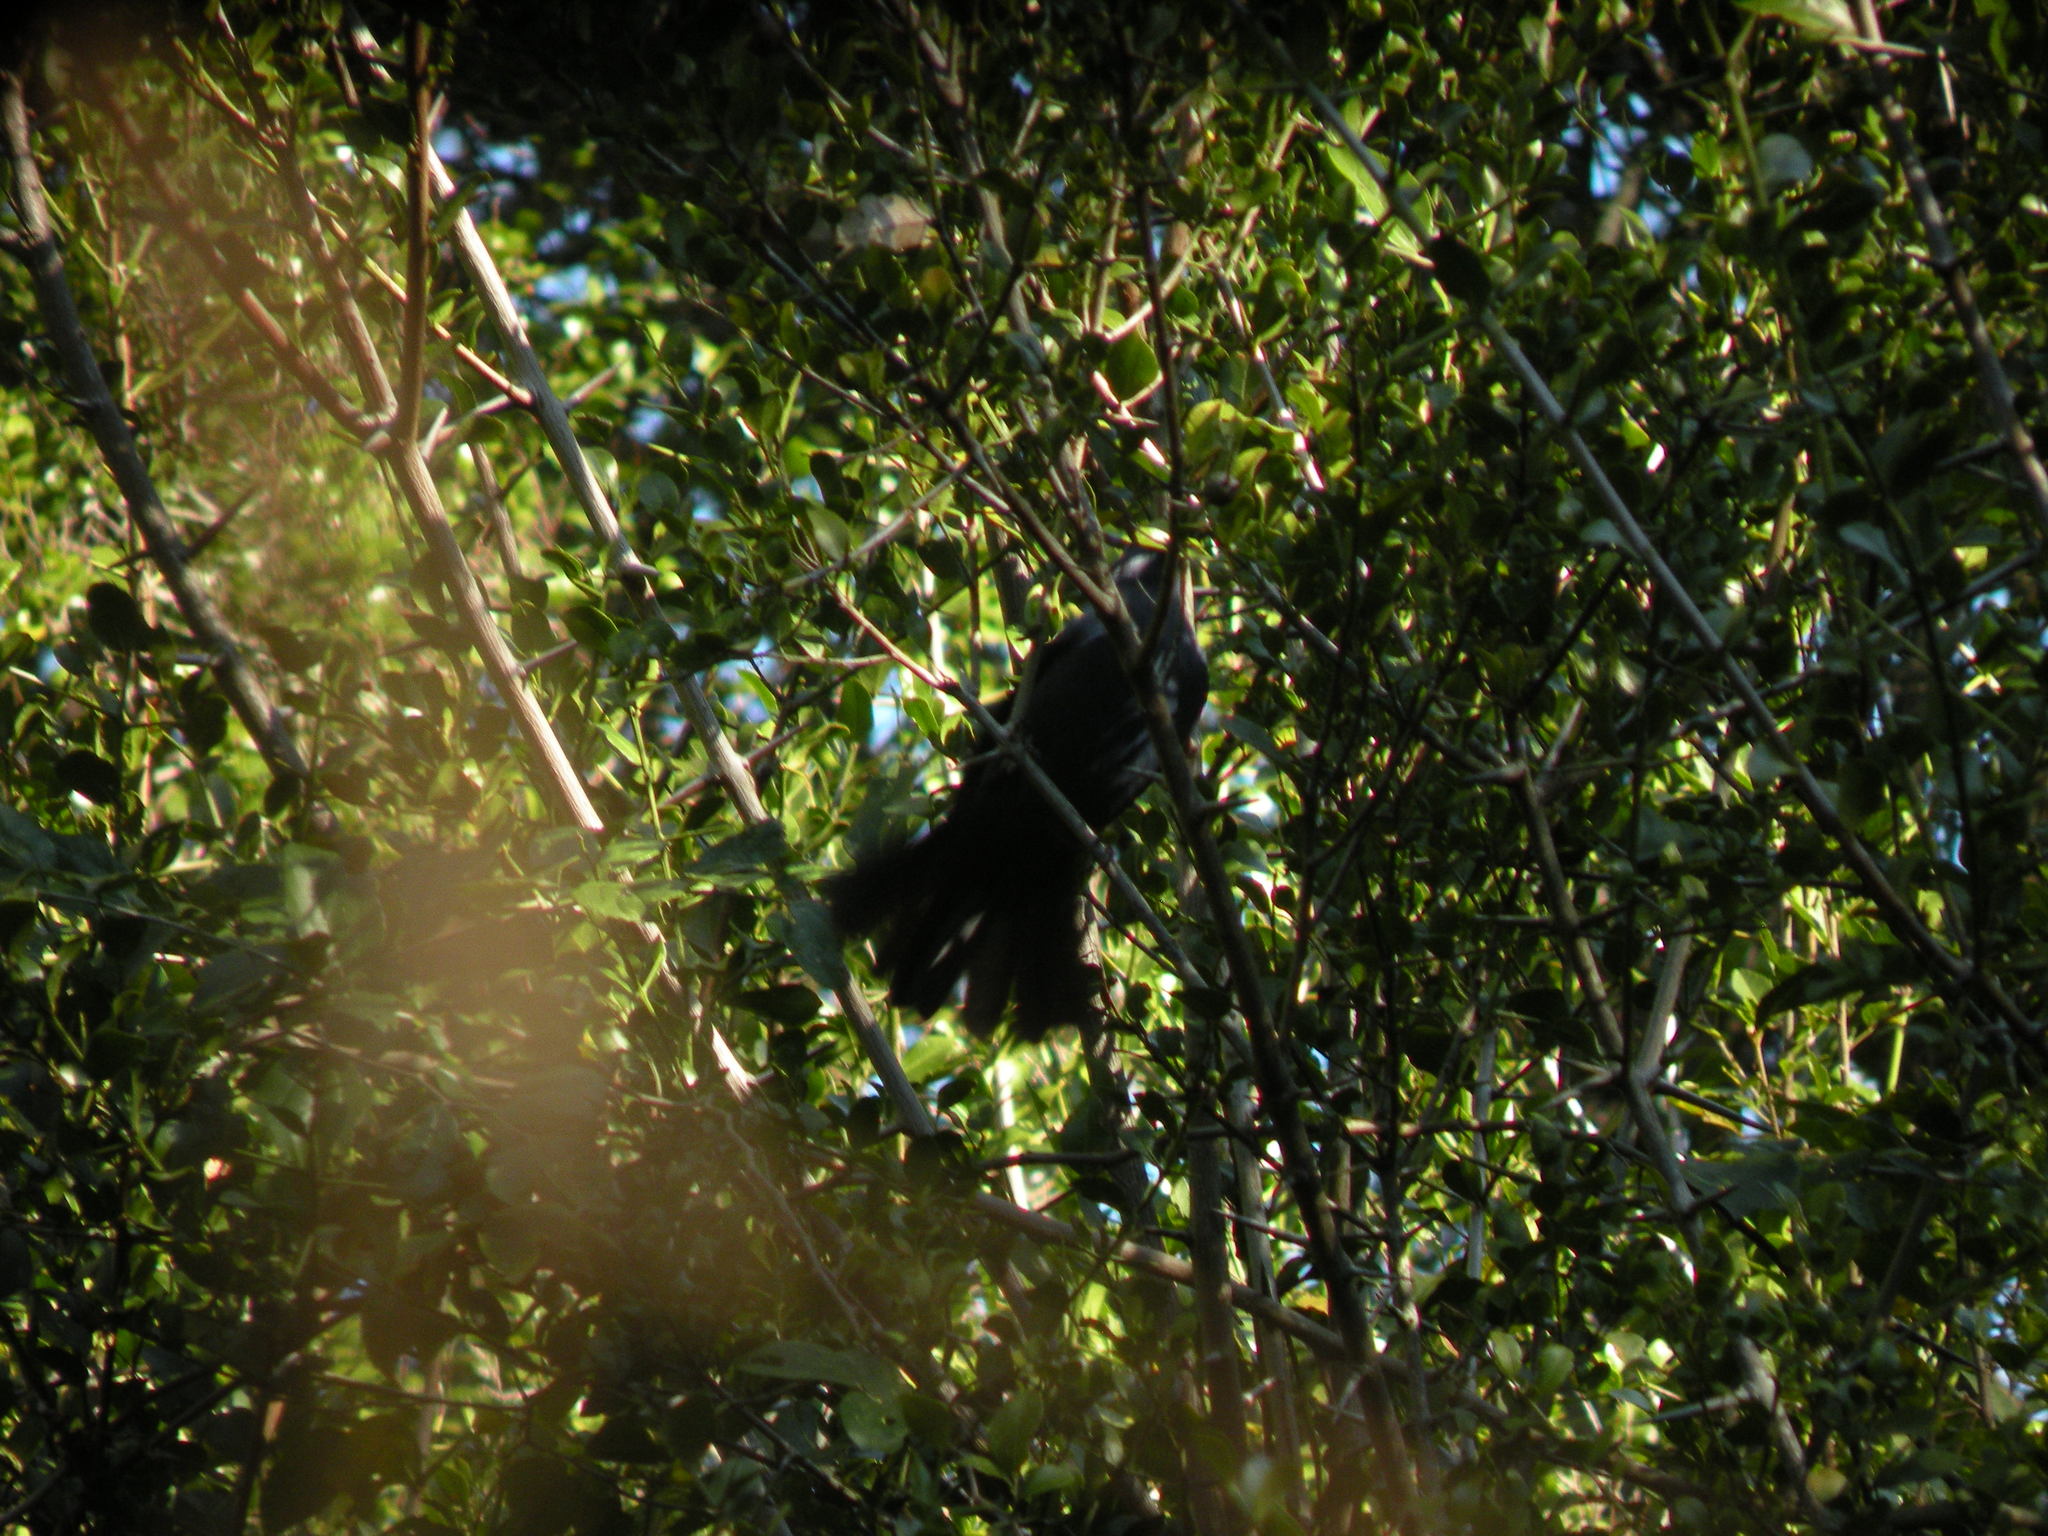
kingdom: Animalia
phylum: Chordata
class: Aves
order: Passeriformes
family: Thraupidae
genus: Stephanophorus
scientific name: Stephanophorus diadematus
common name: Diademed tanager
